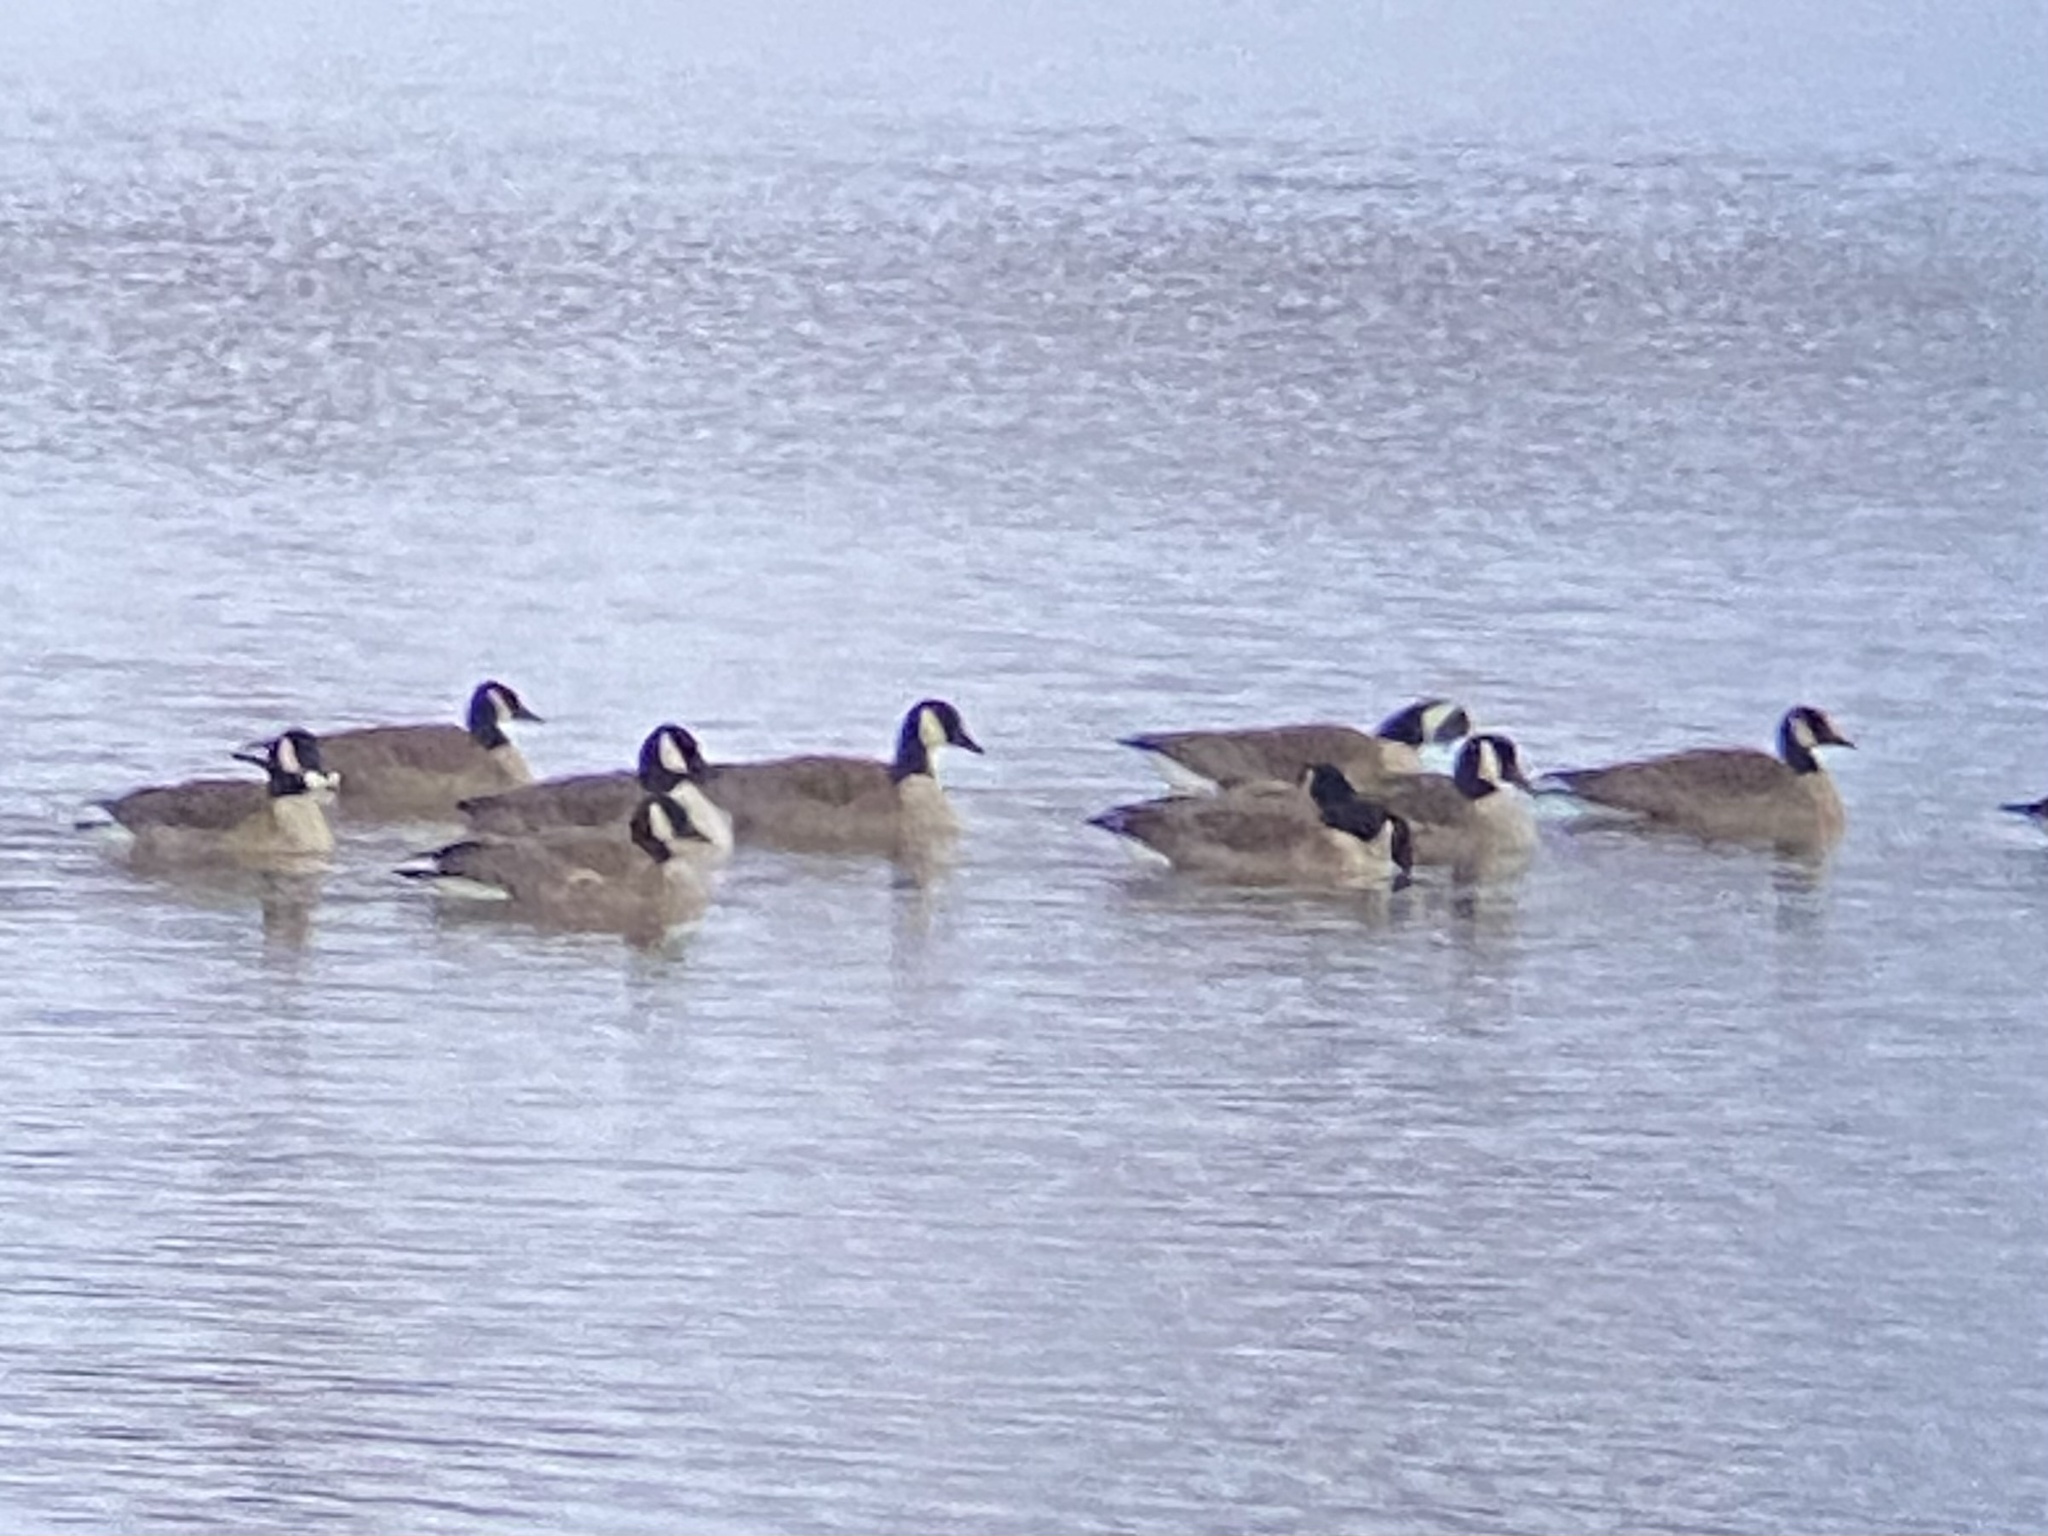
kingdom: Animalia
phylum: Chordata
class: Aves
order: Anseriformes
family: Anatidae
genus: Branta
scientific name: Branta canadensis
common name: Canada goose
